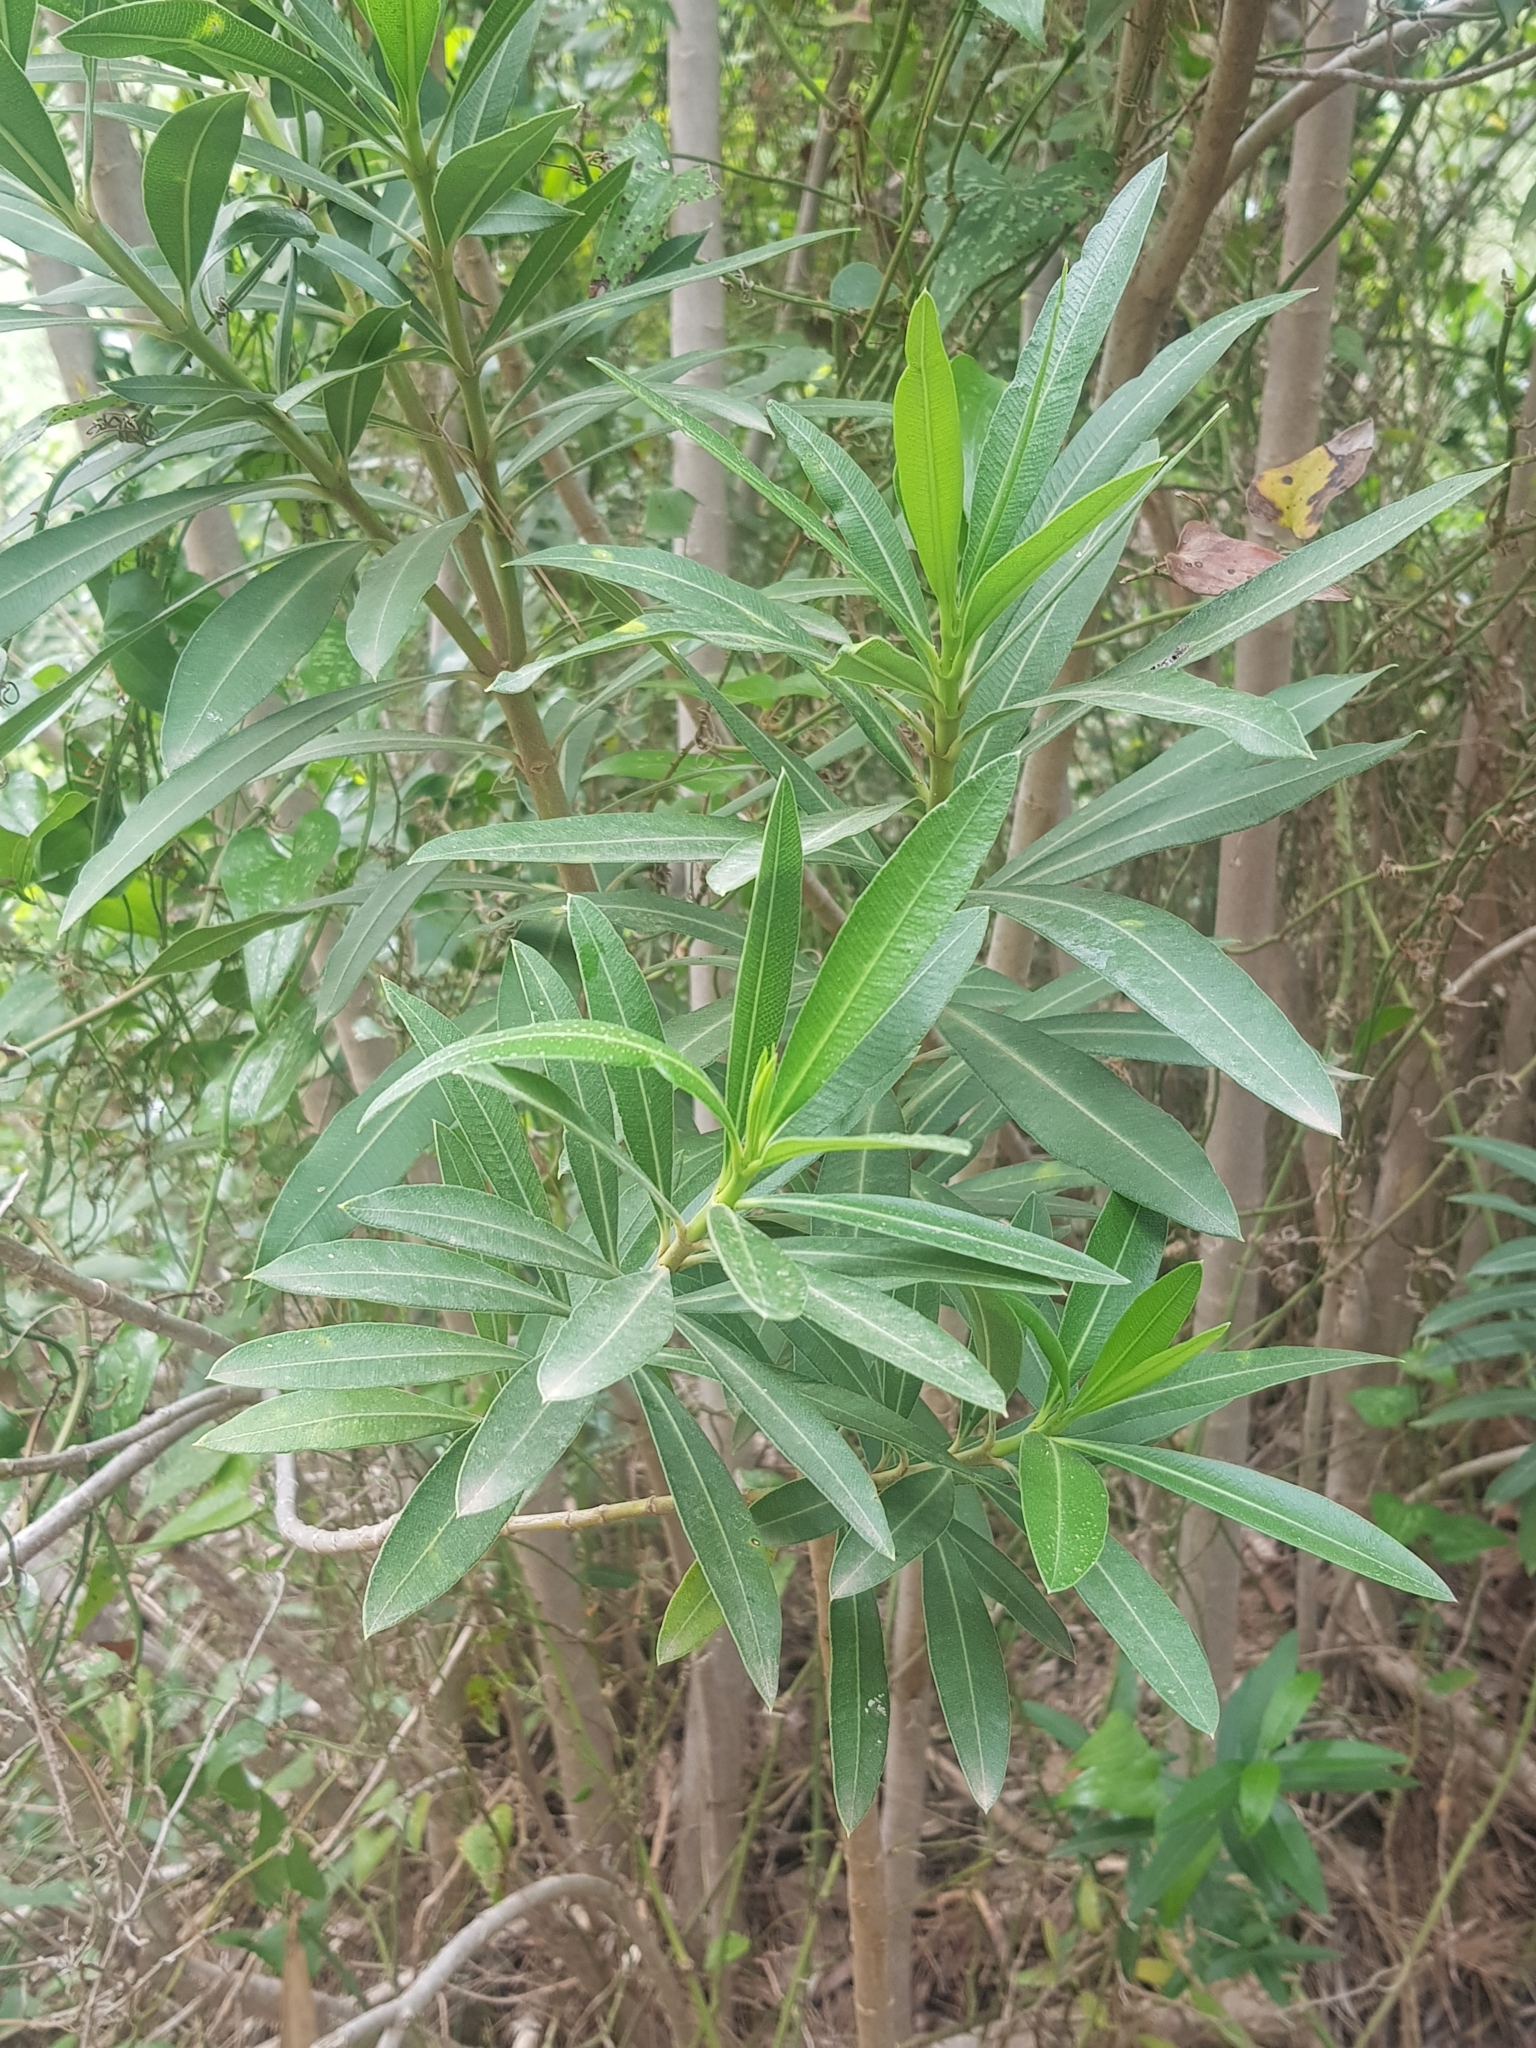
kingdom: Plantae
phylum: Tracheophyta
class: Magnoliopsida
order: Gentianales
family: Apocynaceae
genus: Nerium
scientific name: Nerium oleander
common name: Oleander
